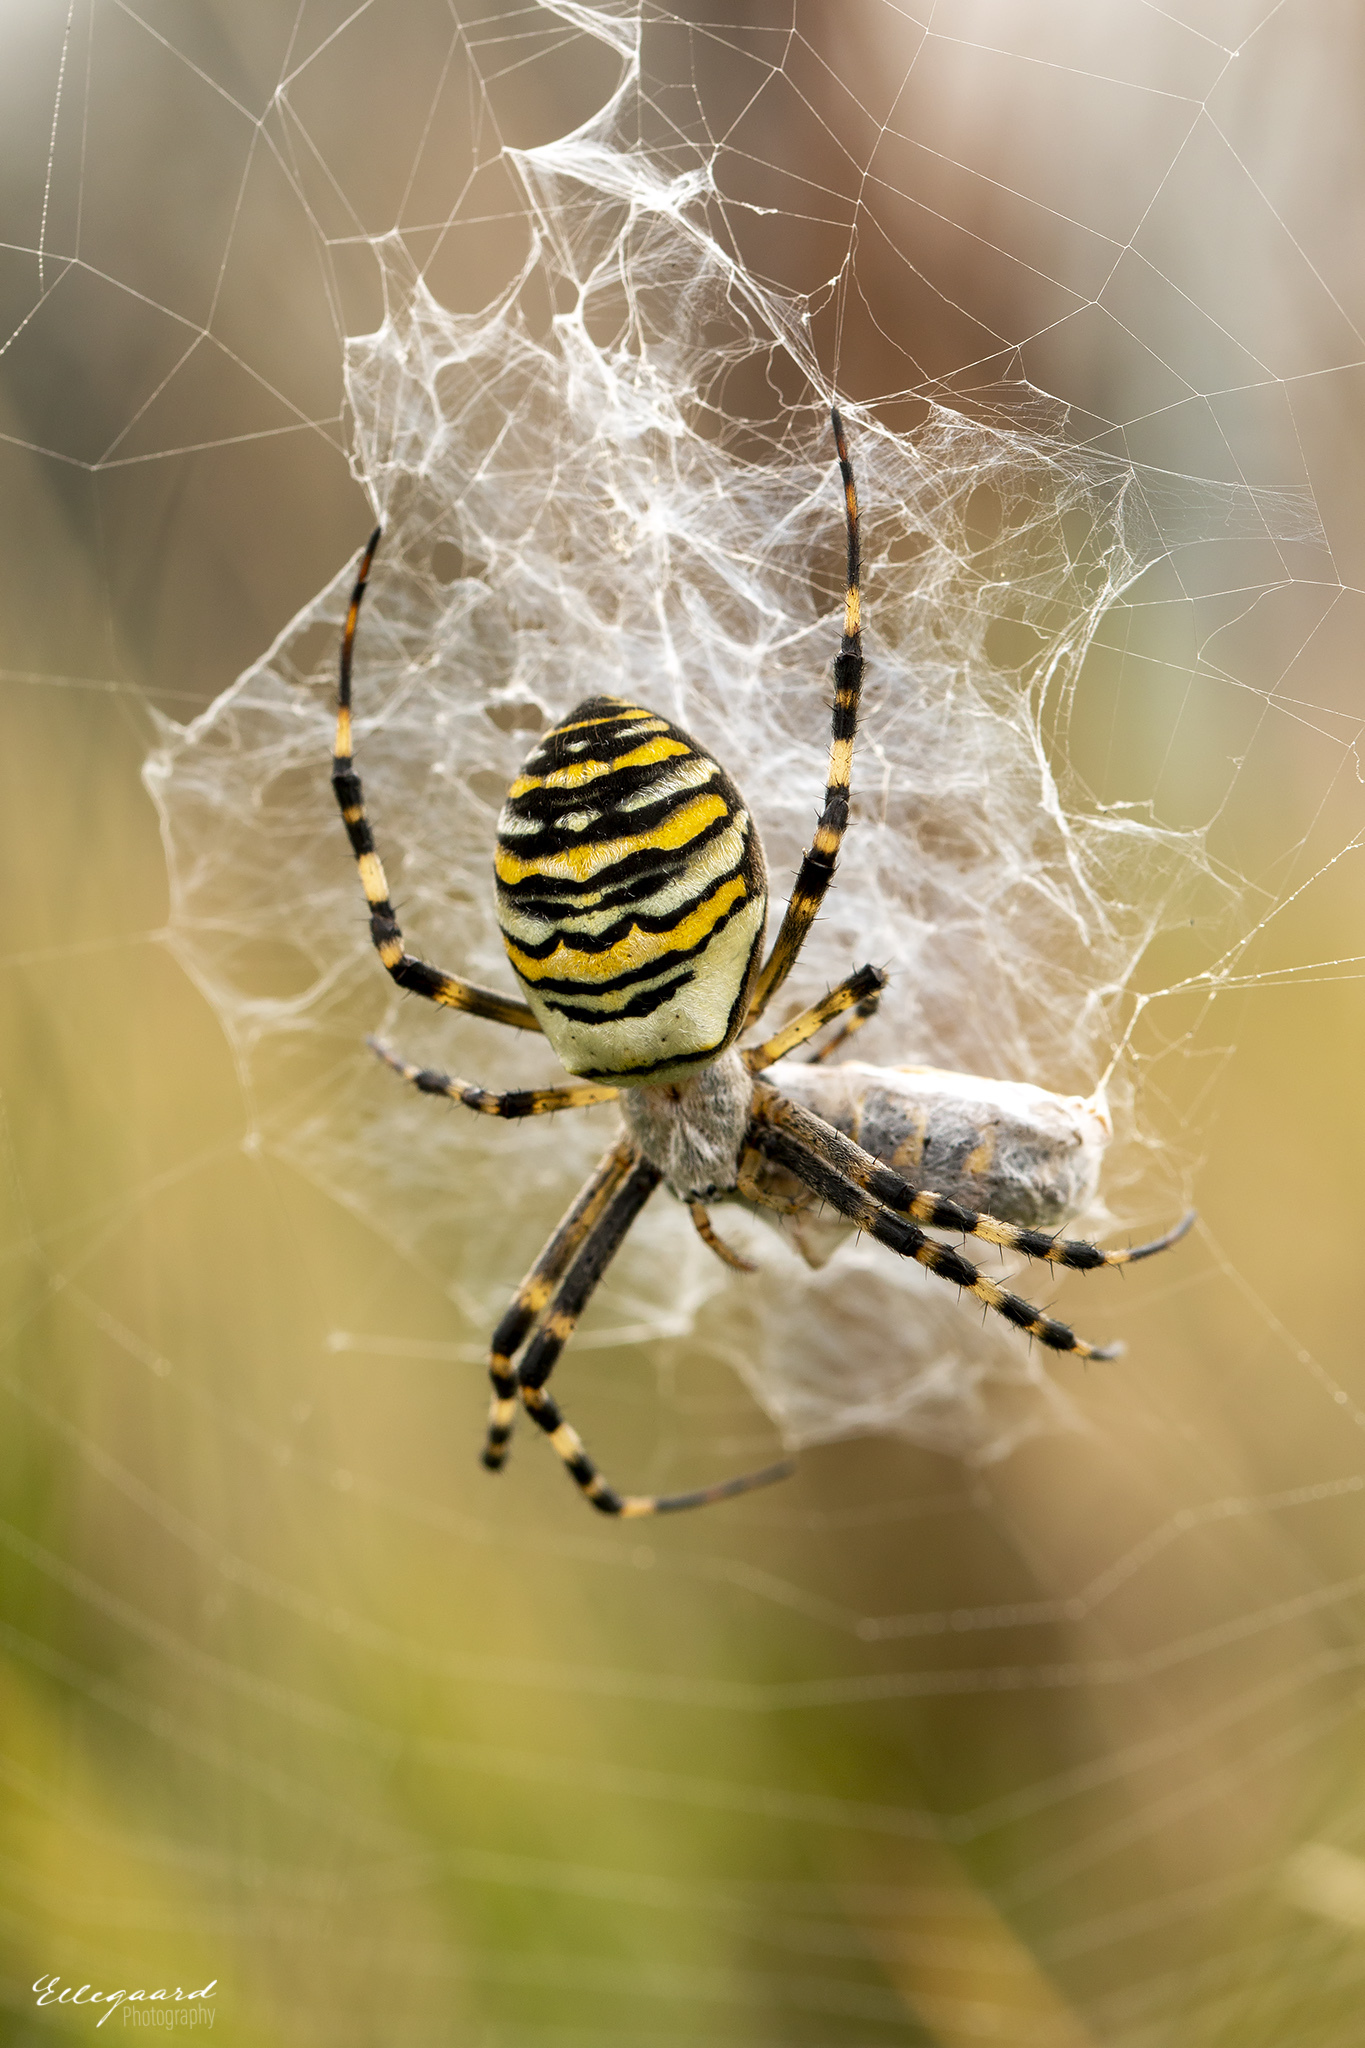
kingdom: Animalia
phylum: Arthropoda
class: Arachnida
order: Araneae
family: Araneidae
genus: Argiope
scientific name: Argiope bruennichi
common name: Wasp spider
